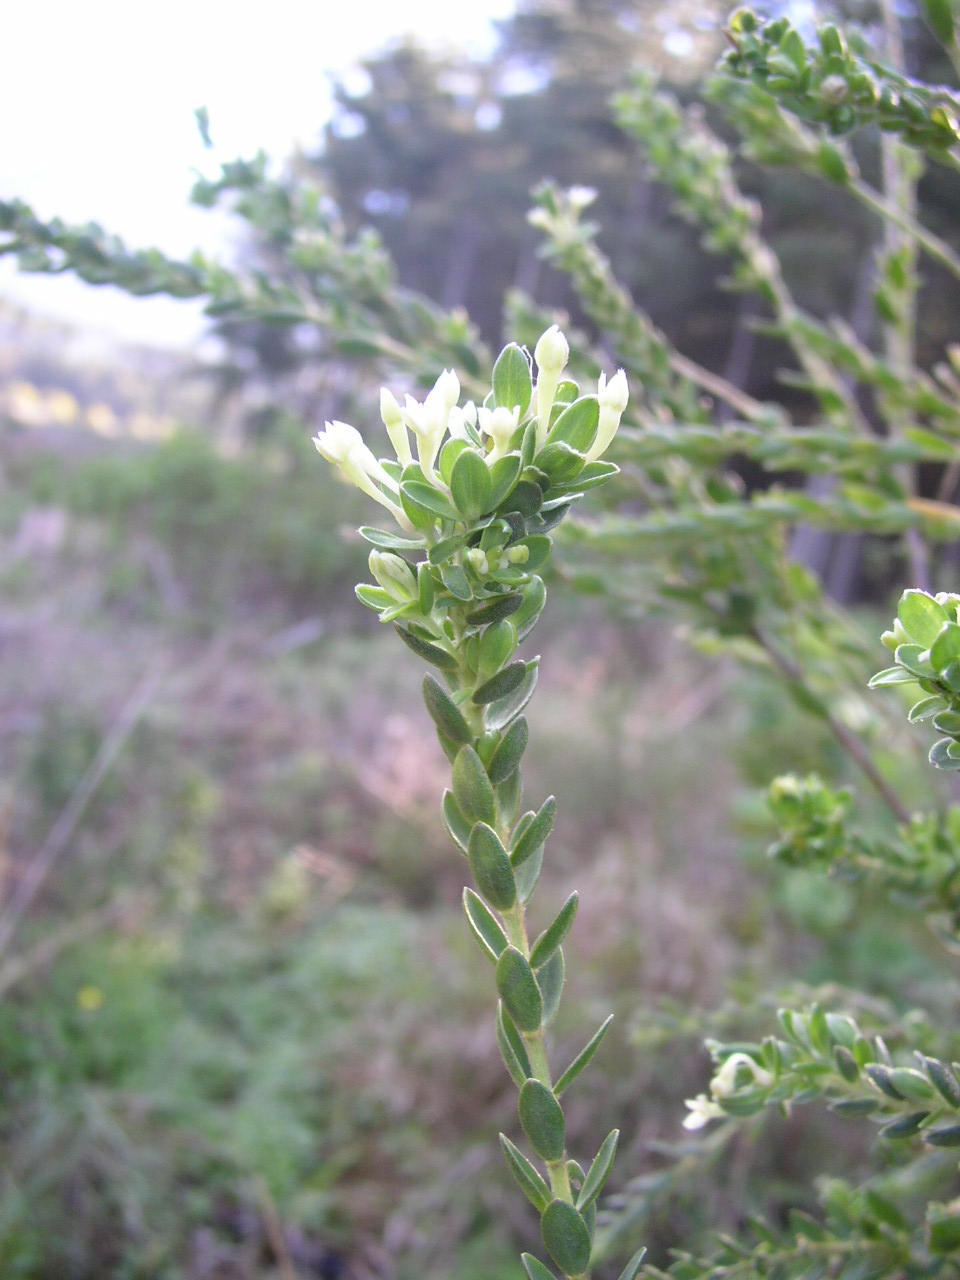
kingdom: Plantae
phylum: Tracheophyta
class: Magnoliopsida
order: Malvales
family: Thymelaeaceae
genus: Gnidia
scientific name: Gnidia sericea
